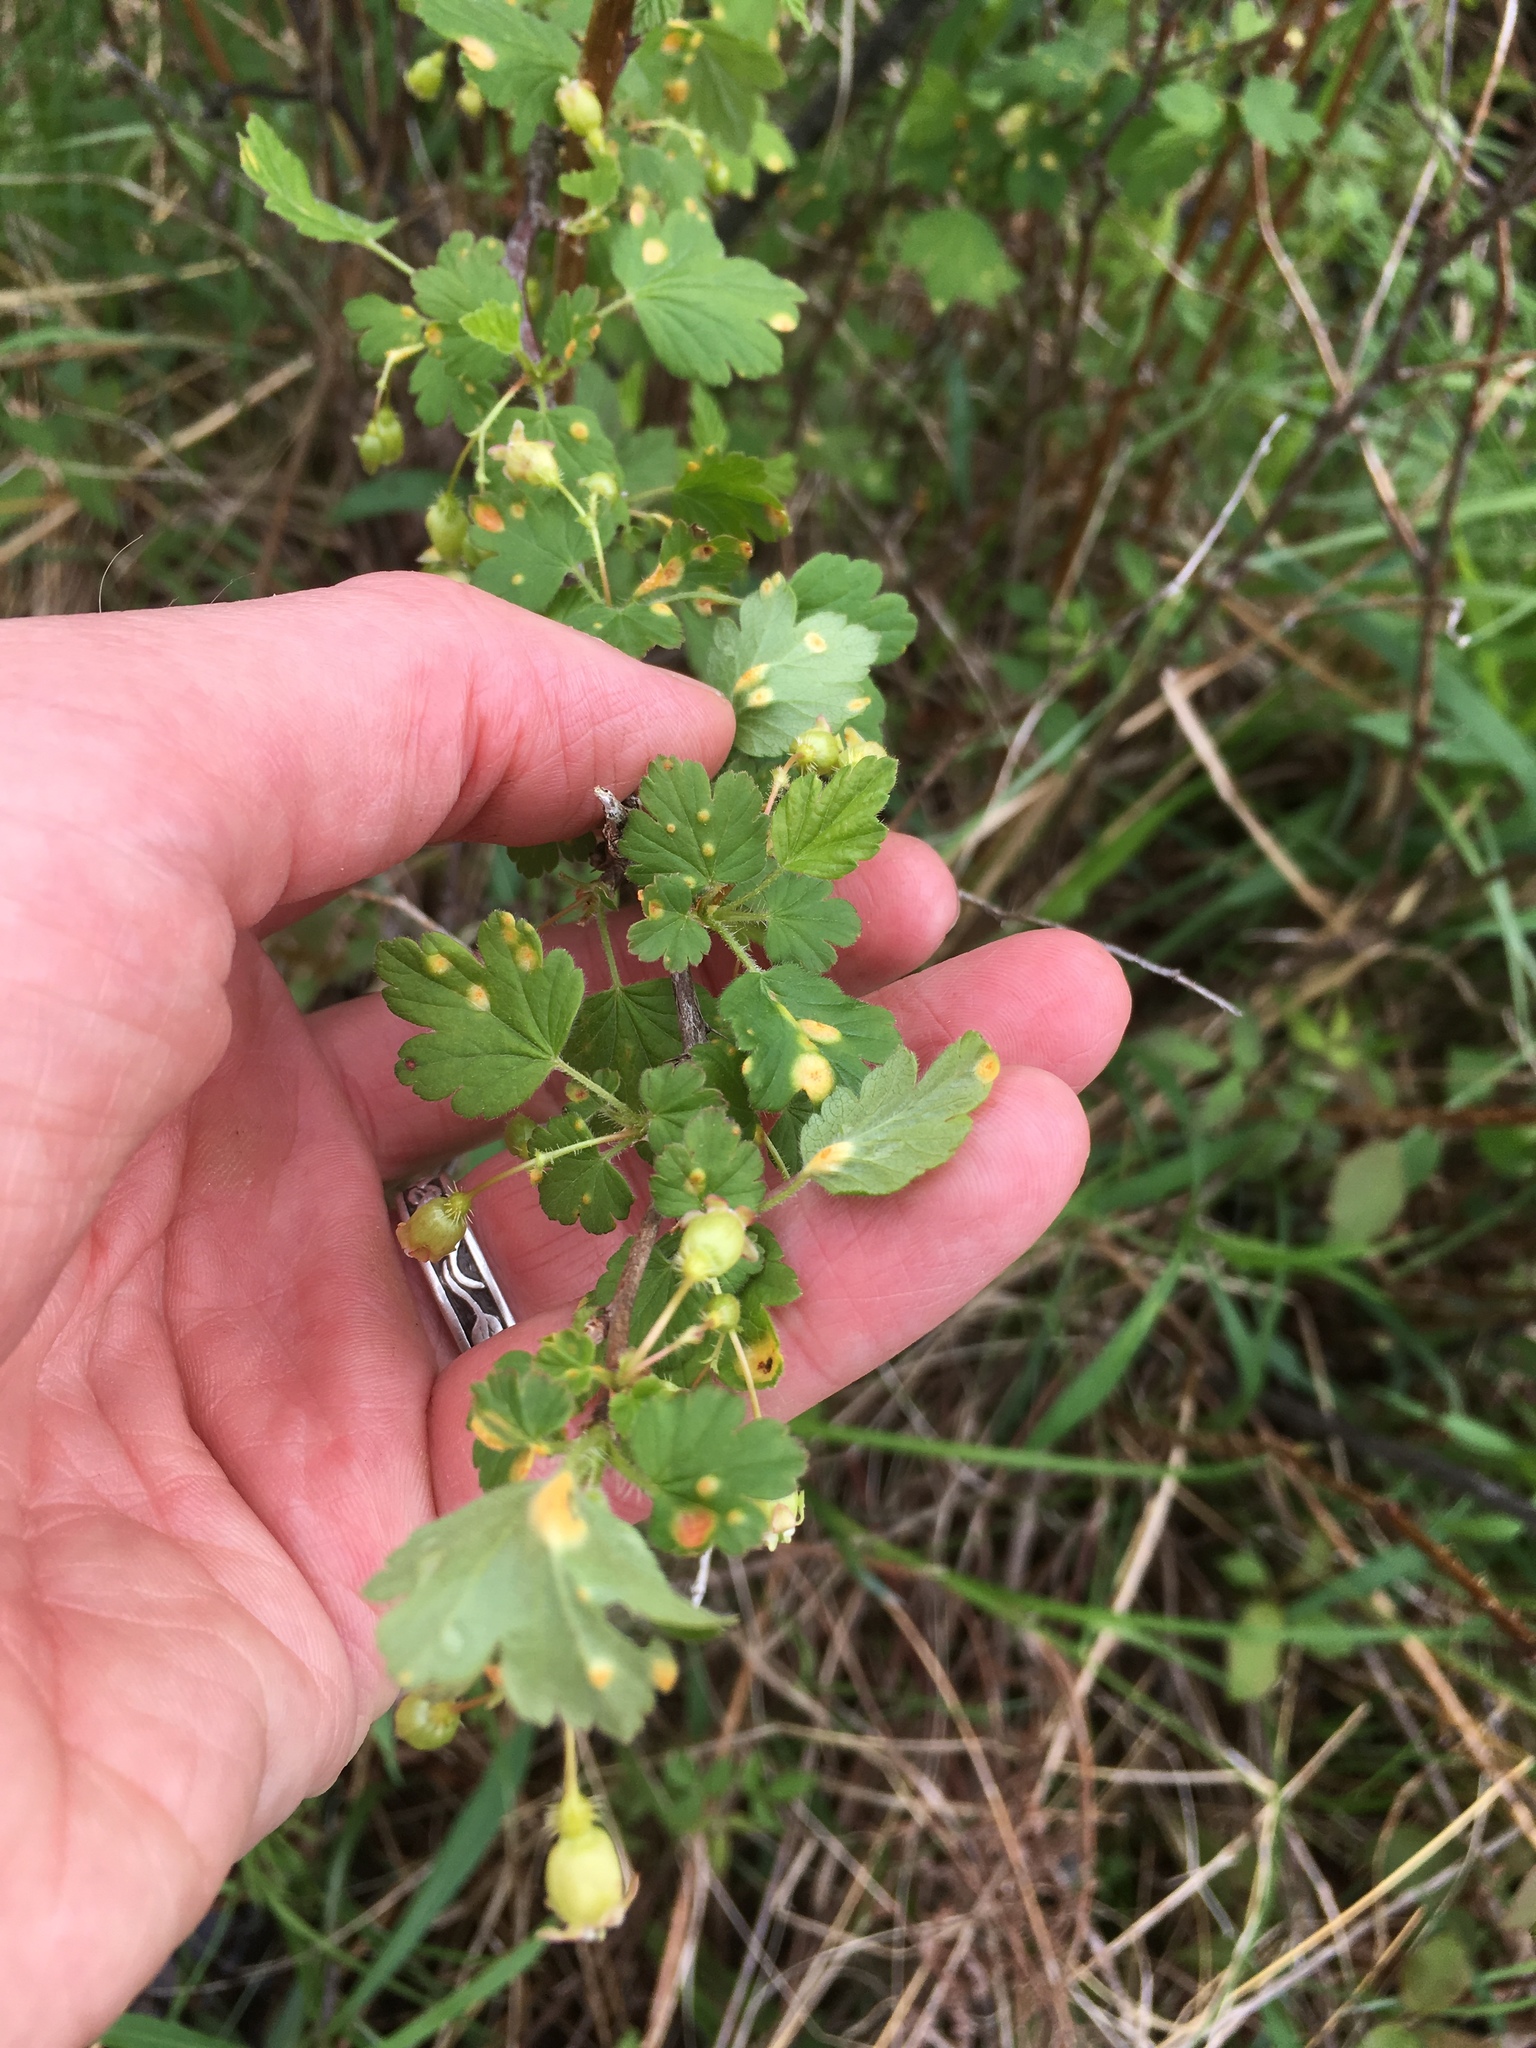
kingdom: Plantae
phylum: Tracheophyta
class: Magnoliopsida
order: Saxifragales
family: Grossulariaceae
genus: Ribes
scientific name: Ribes cynosbati
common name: American gooseberry
